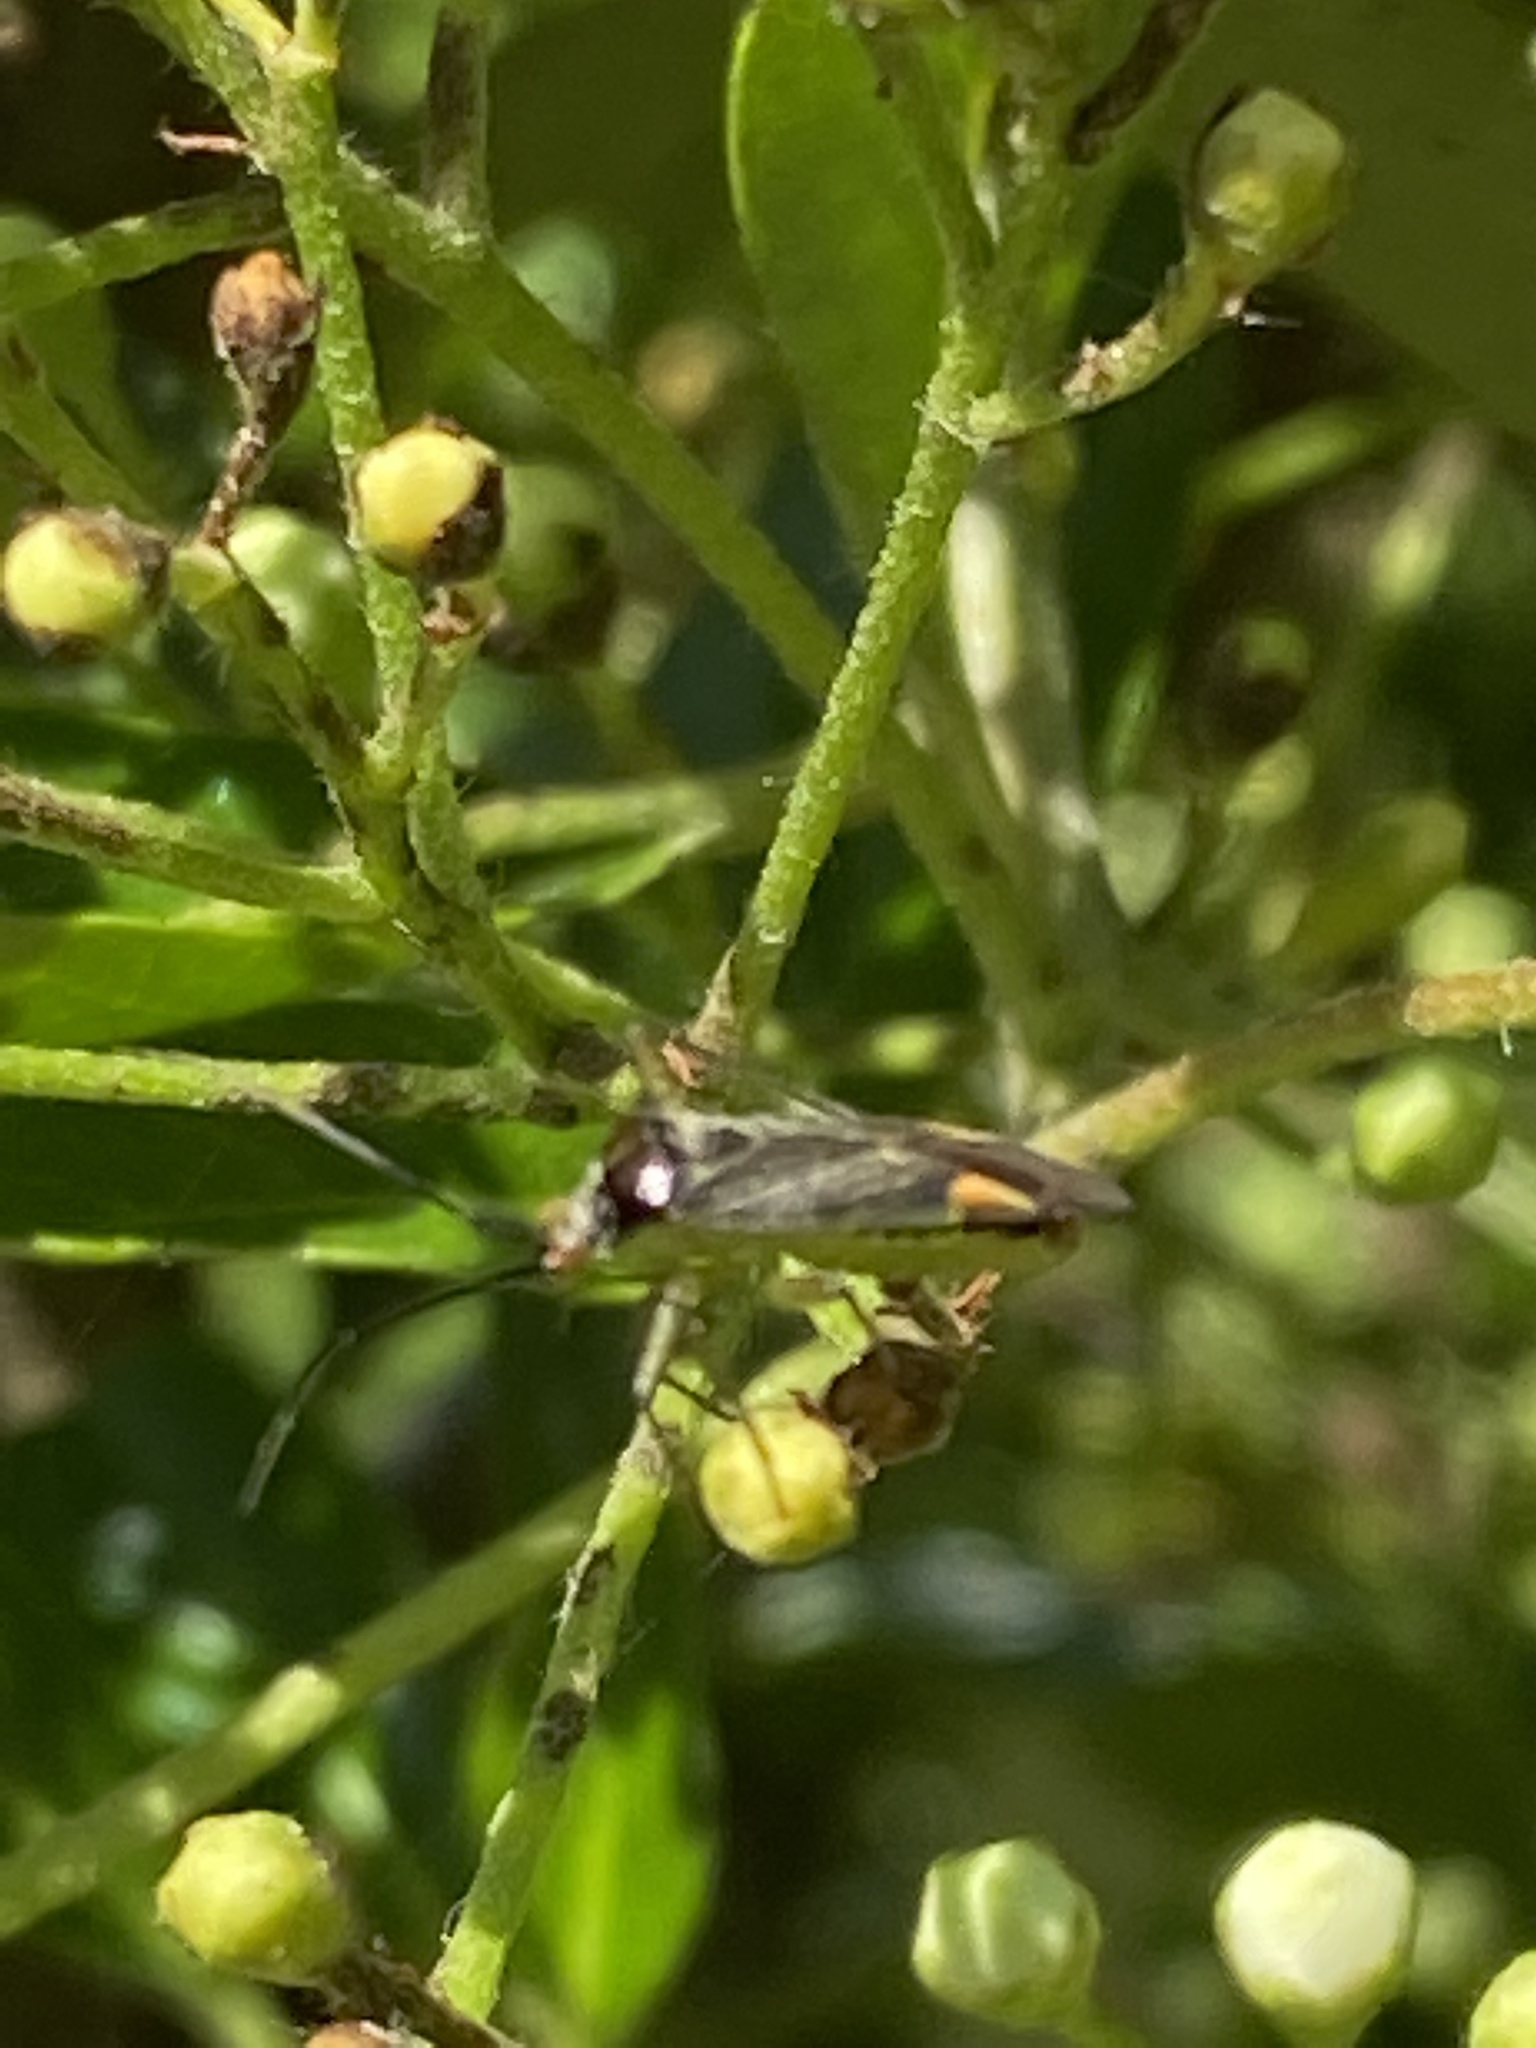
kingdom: Animalia
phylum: Arthropoda
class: Insecta
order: Hemiptera
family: Miridae
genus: Closterotomus
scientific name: Closterotomus trivialis
